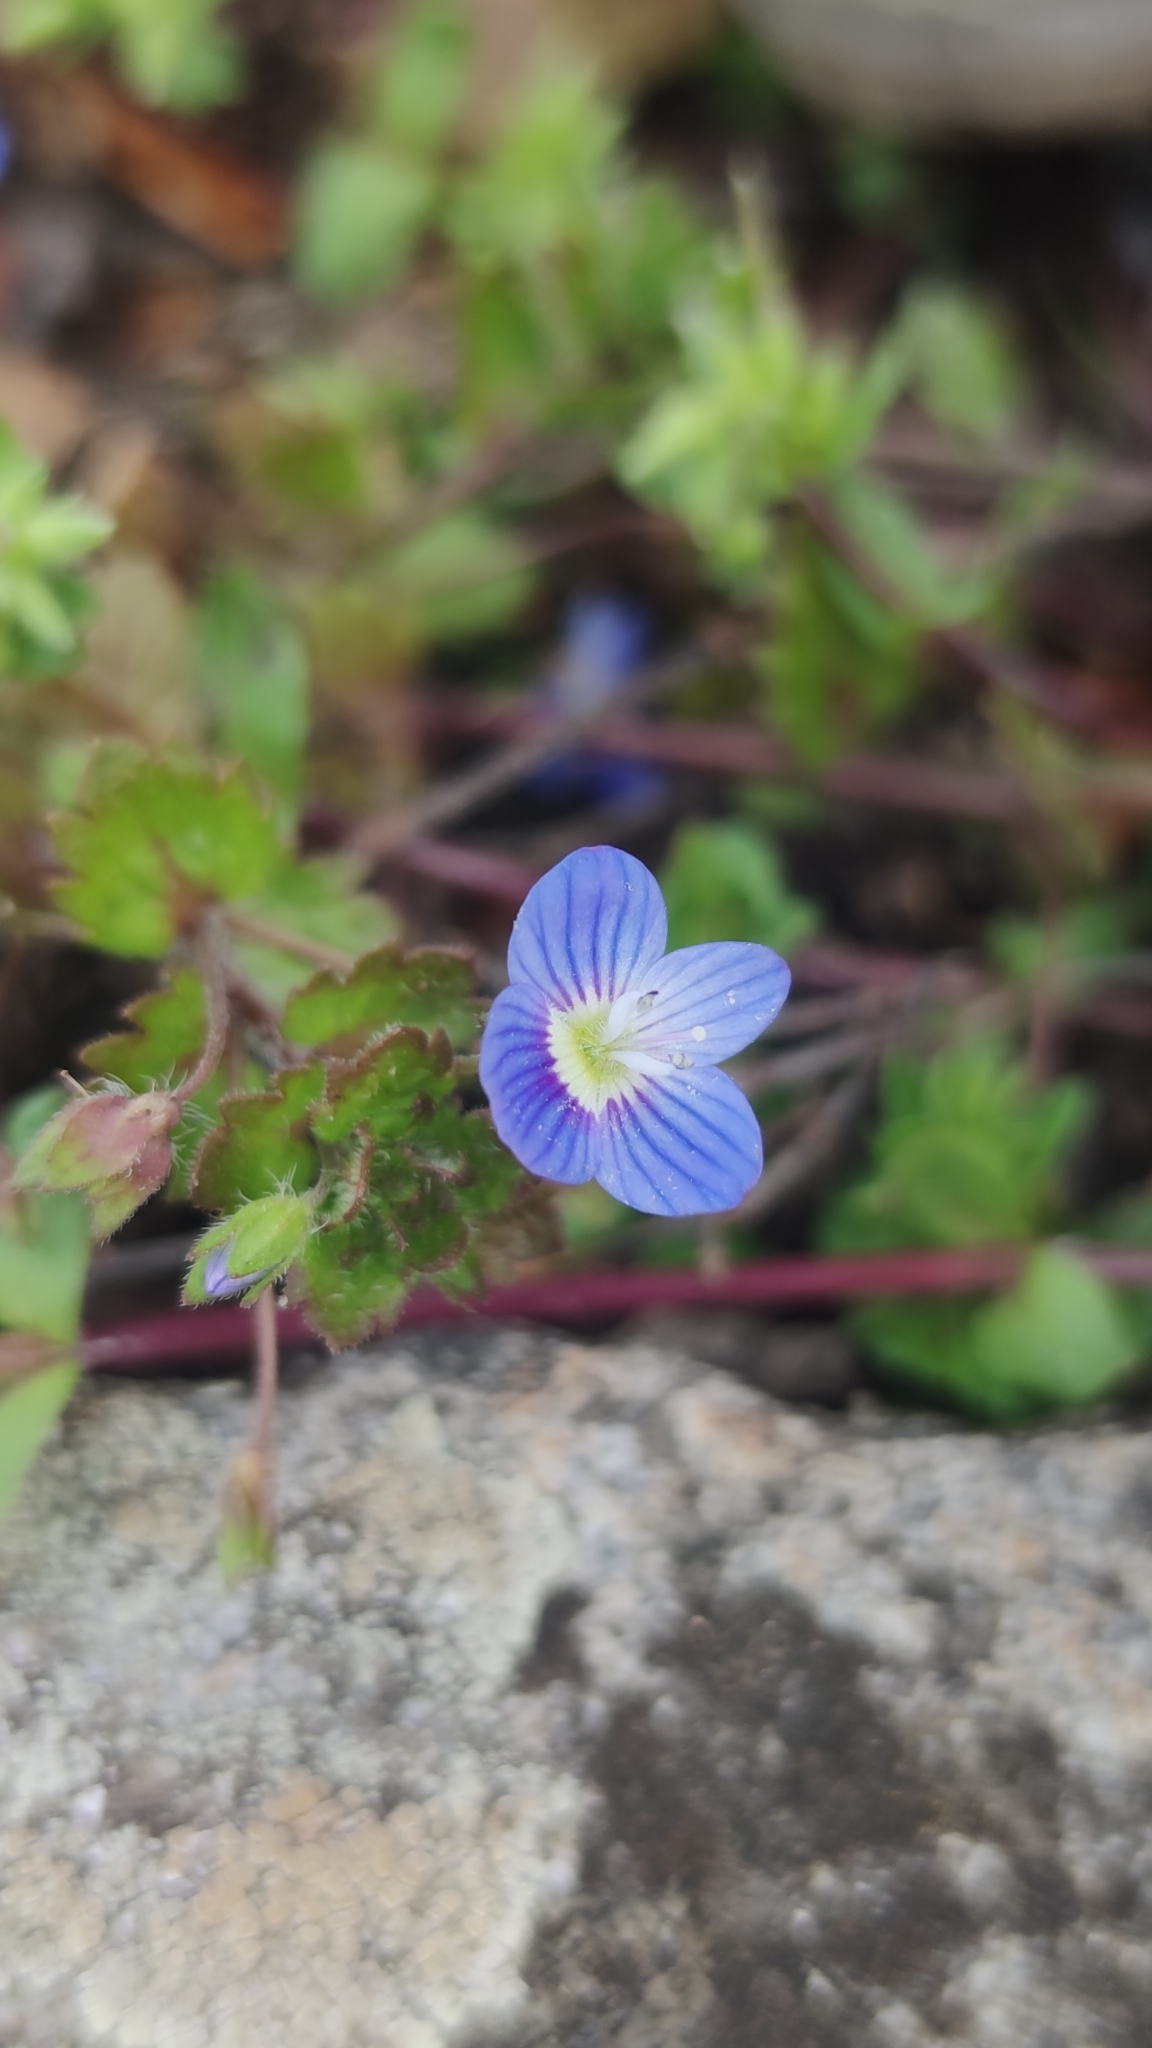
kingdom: Plantae
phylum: Tracheophyta
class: Magnoliopsida
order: Lamiales
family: Plantaginaceae
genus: Veronica
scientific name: Veronica persica
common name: Common field-speedwell
